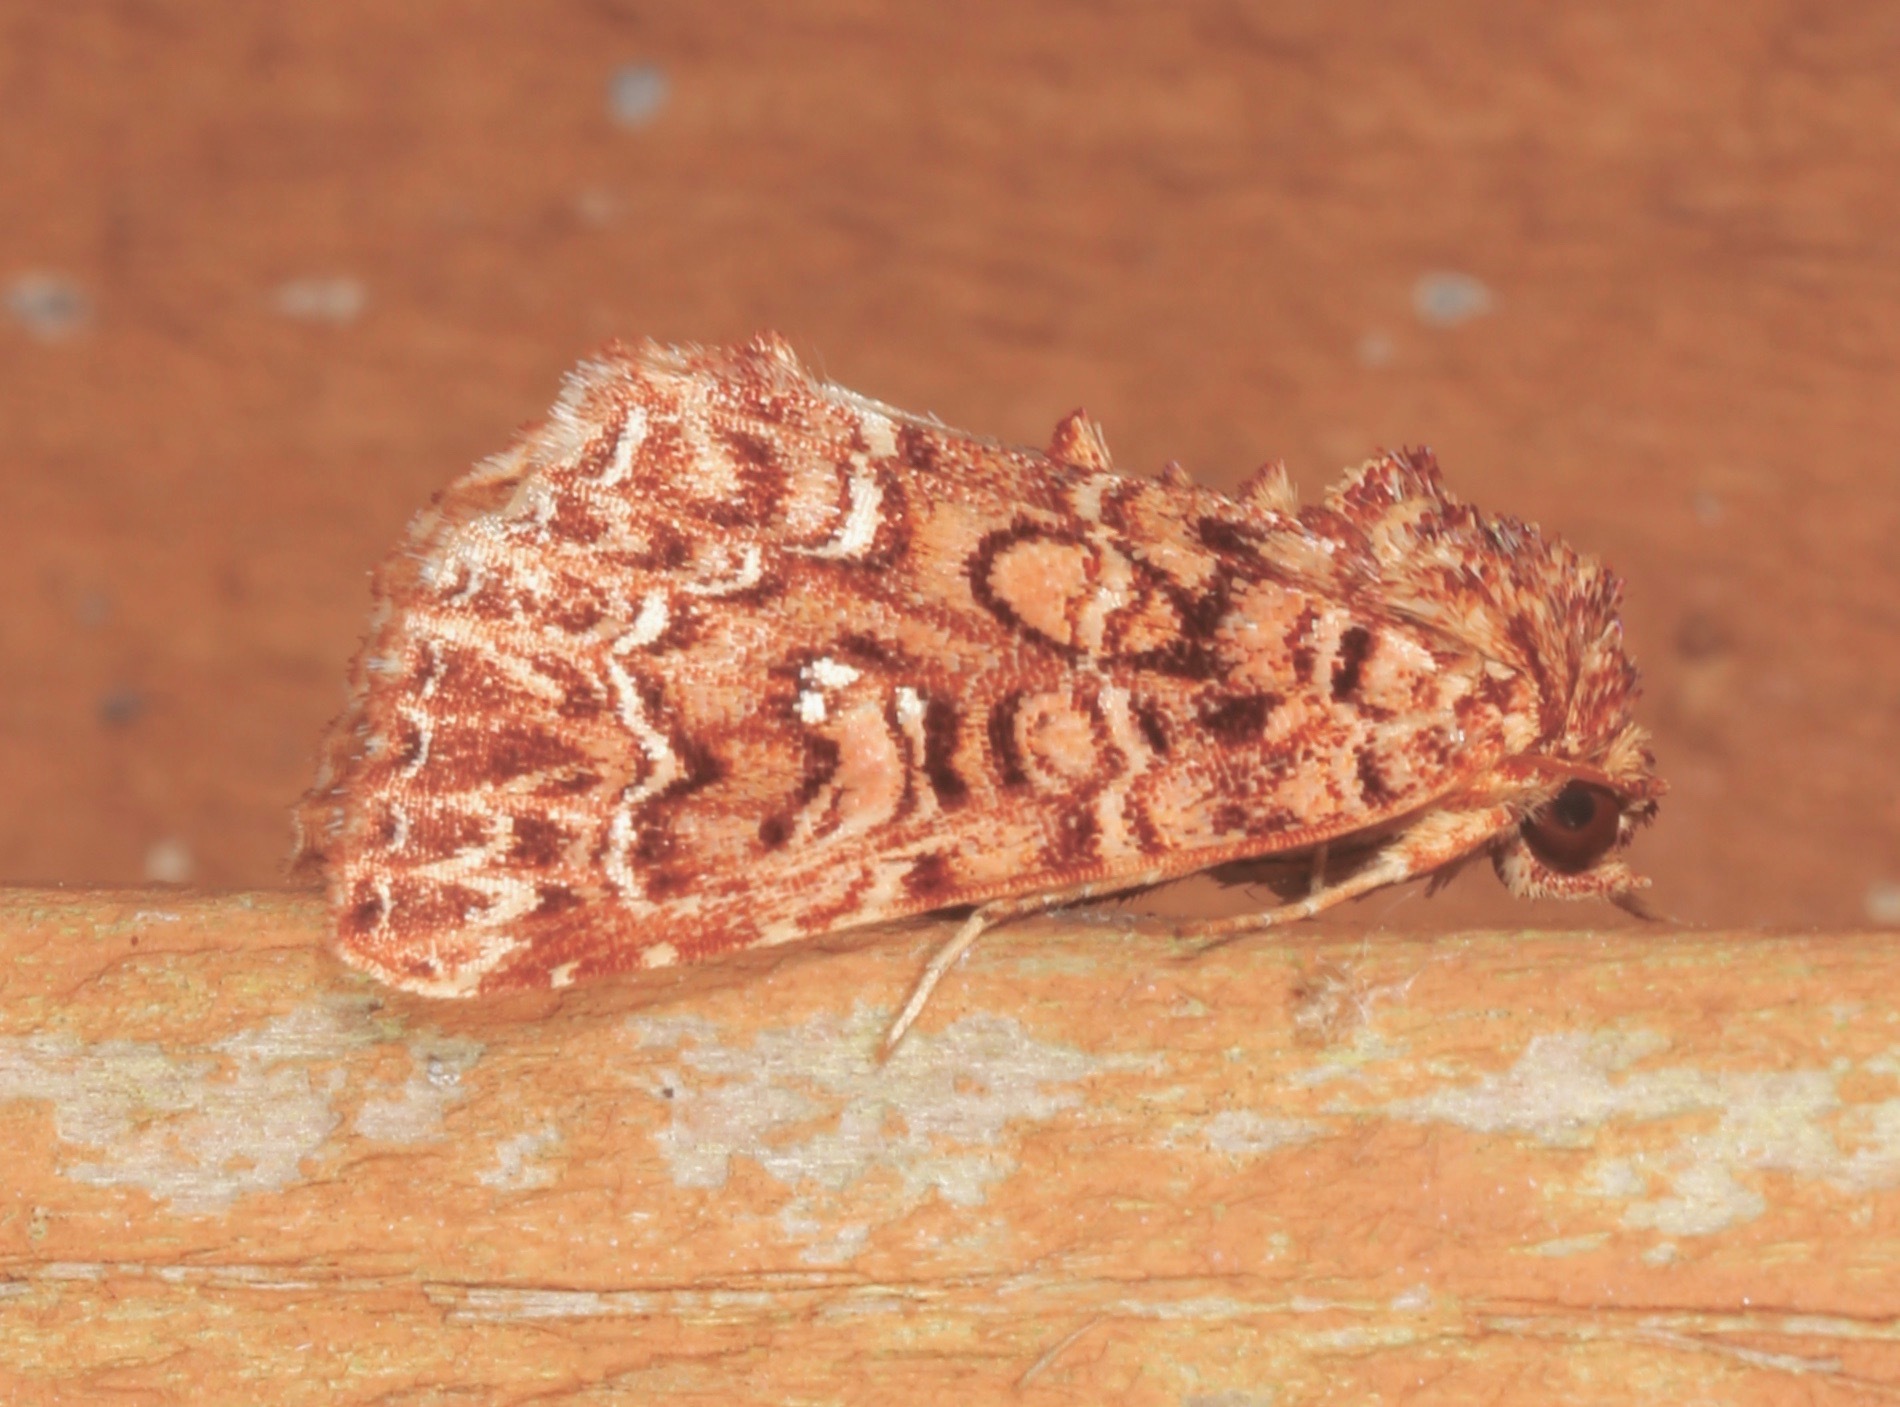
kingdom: Animalia
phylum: Arthropoda
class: Insecta
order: Lepidoptera
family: Noctuidae
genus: Callopistria
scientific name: Callopistria granitosa
